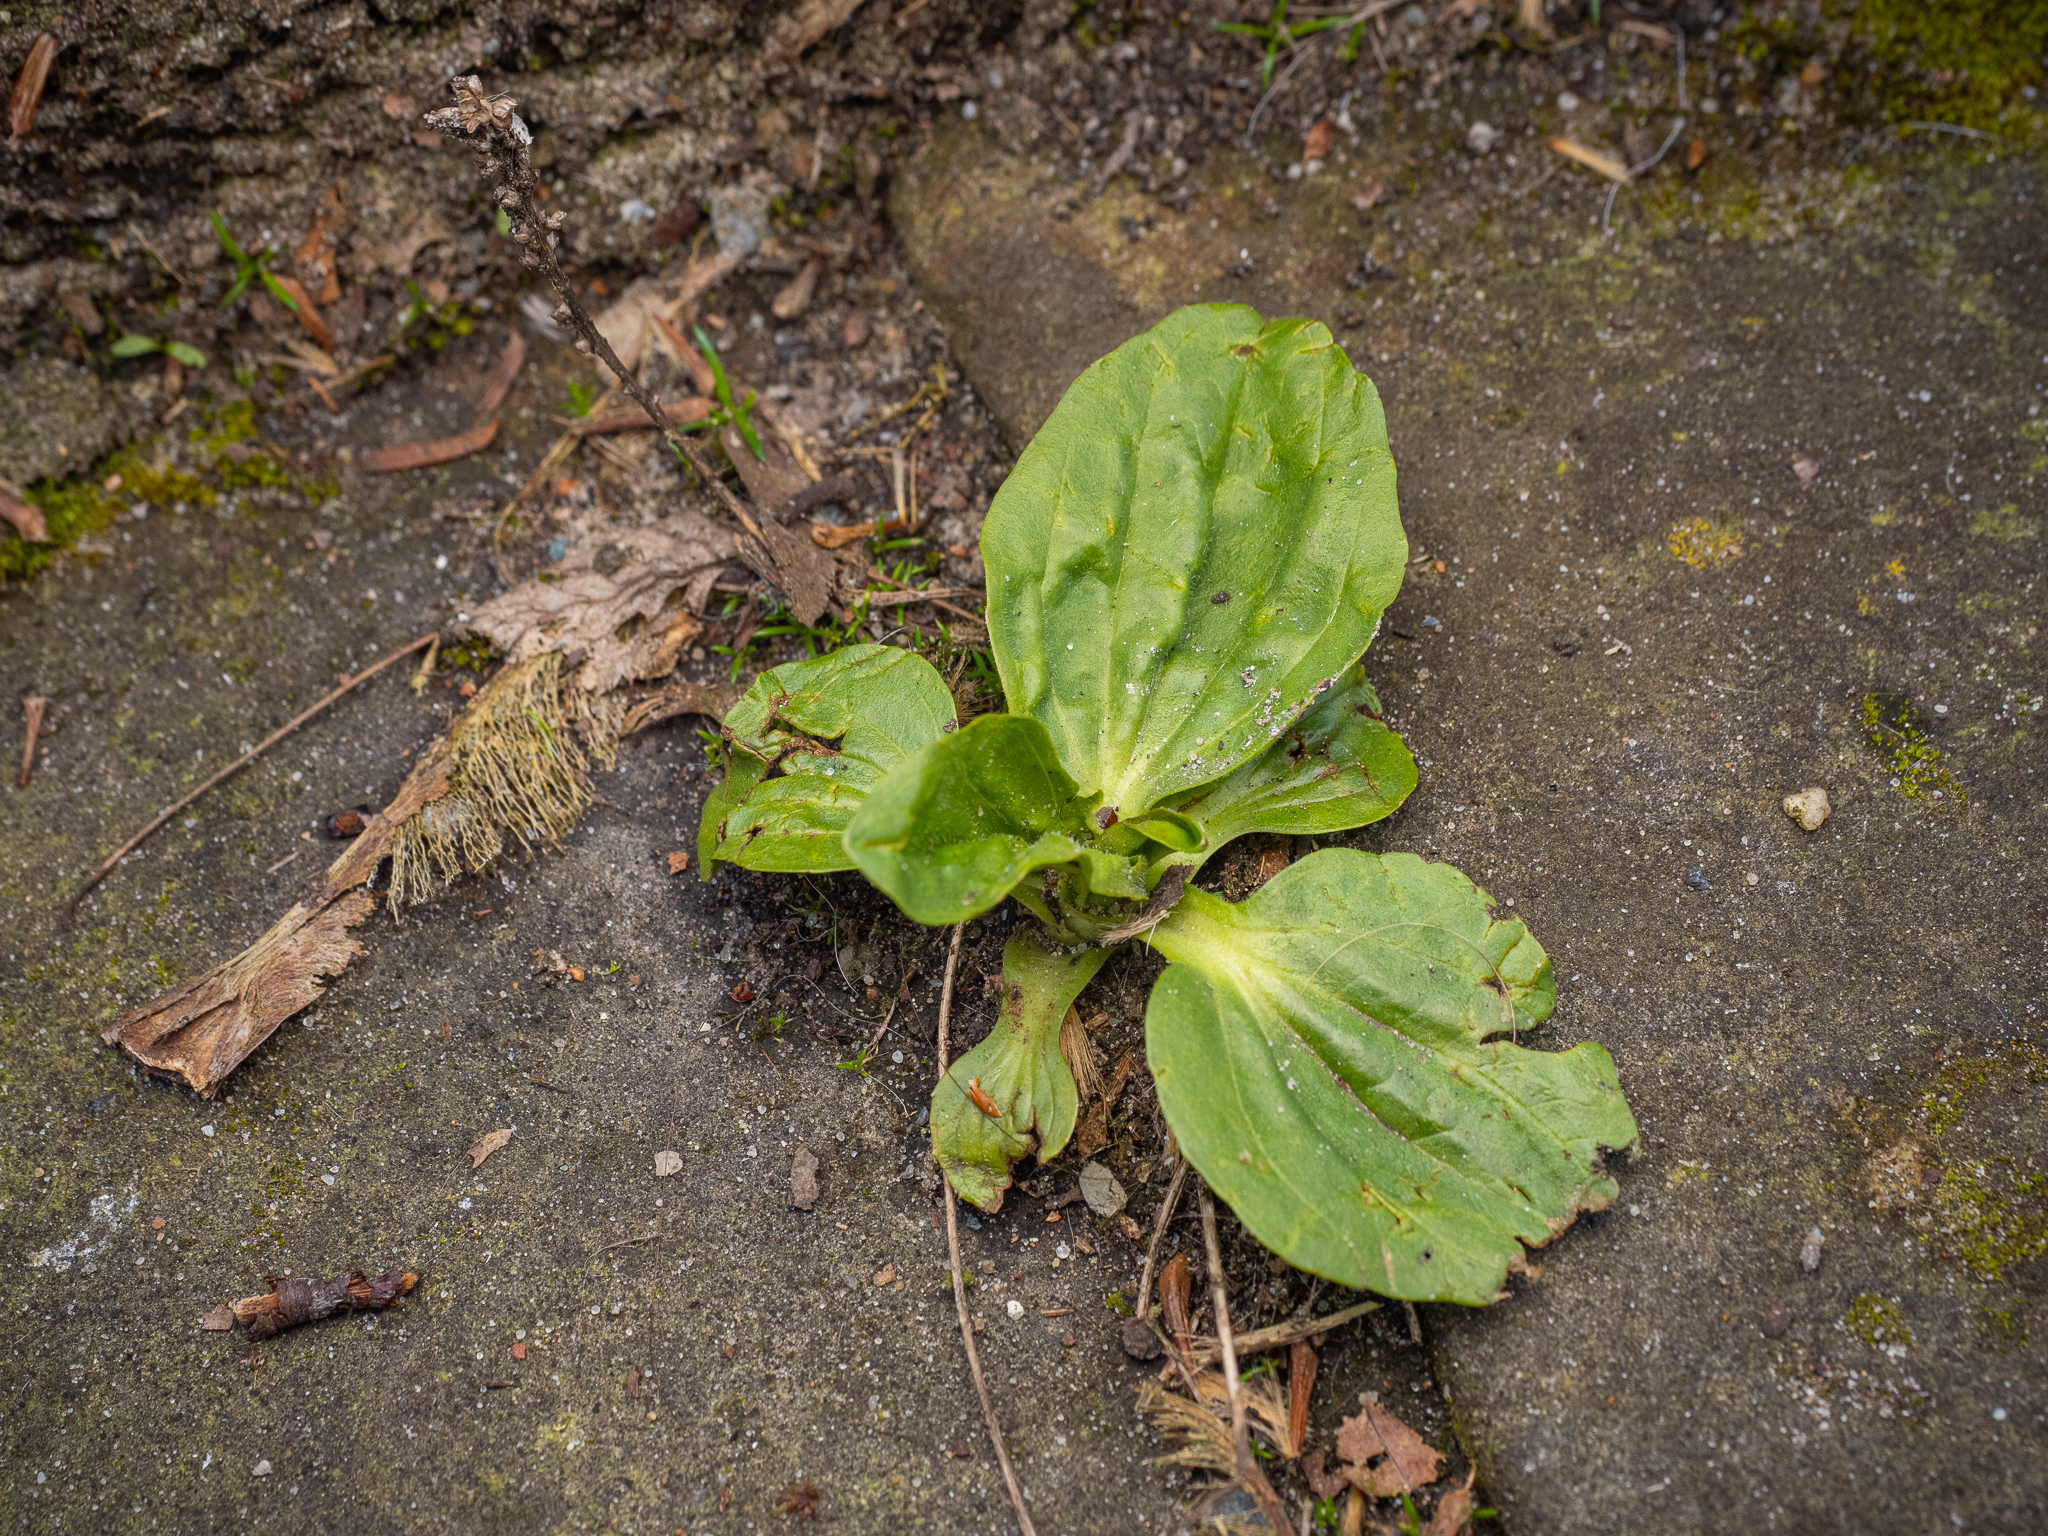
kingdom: Plantae
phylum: Tracheophyta
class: Magnoliopsida
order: Lamiales
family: Plantaginaceae
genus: Plantago
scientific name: Plantago major
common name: Common plantain
